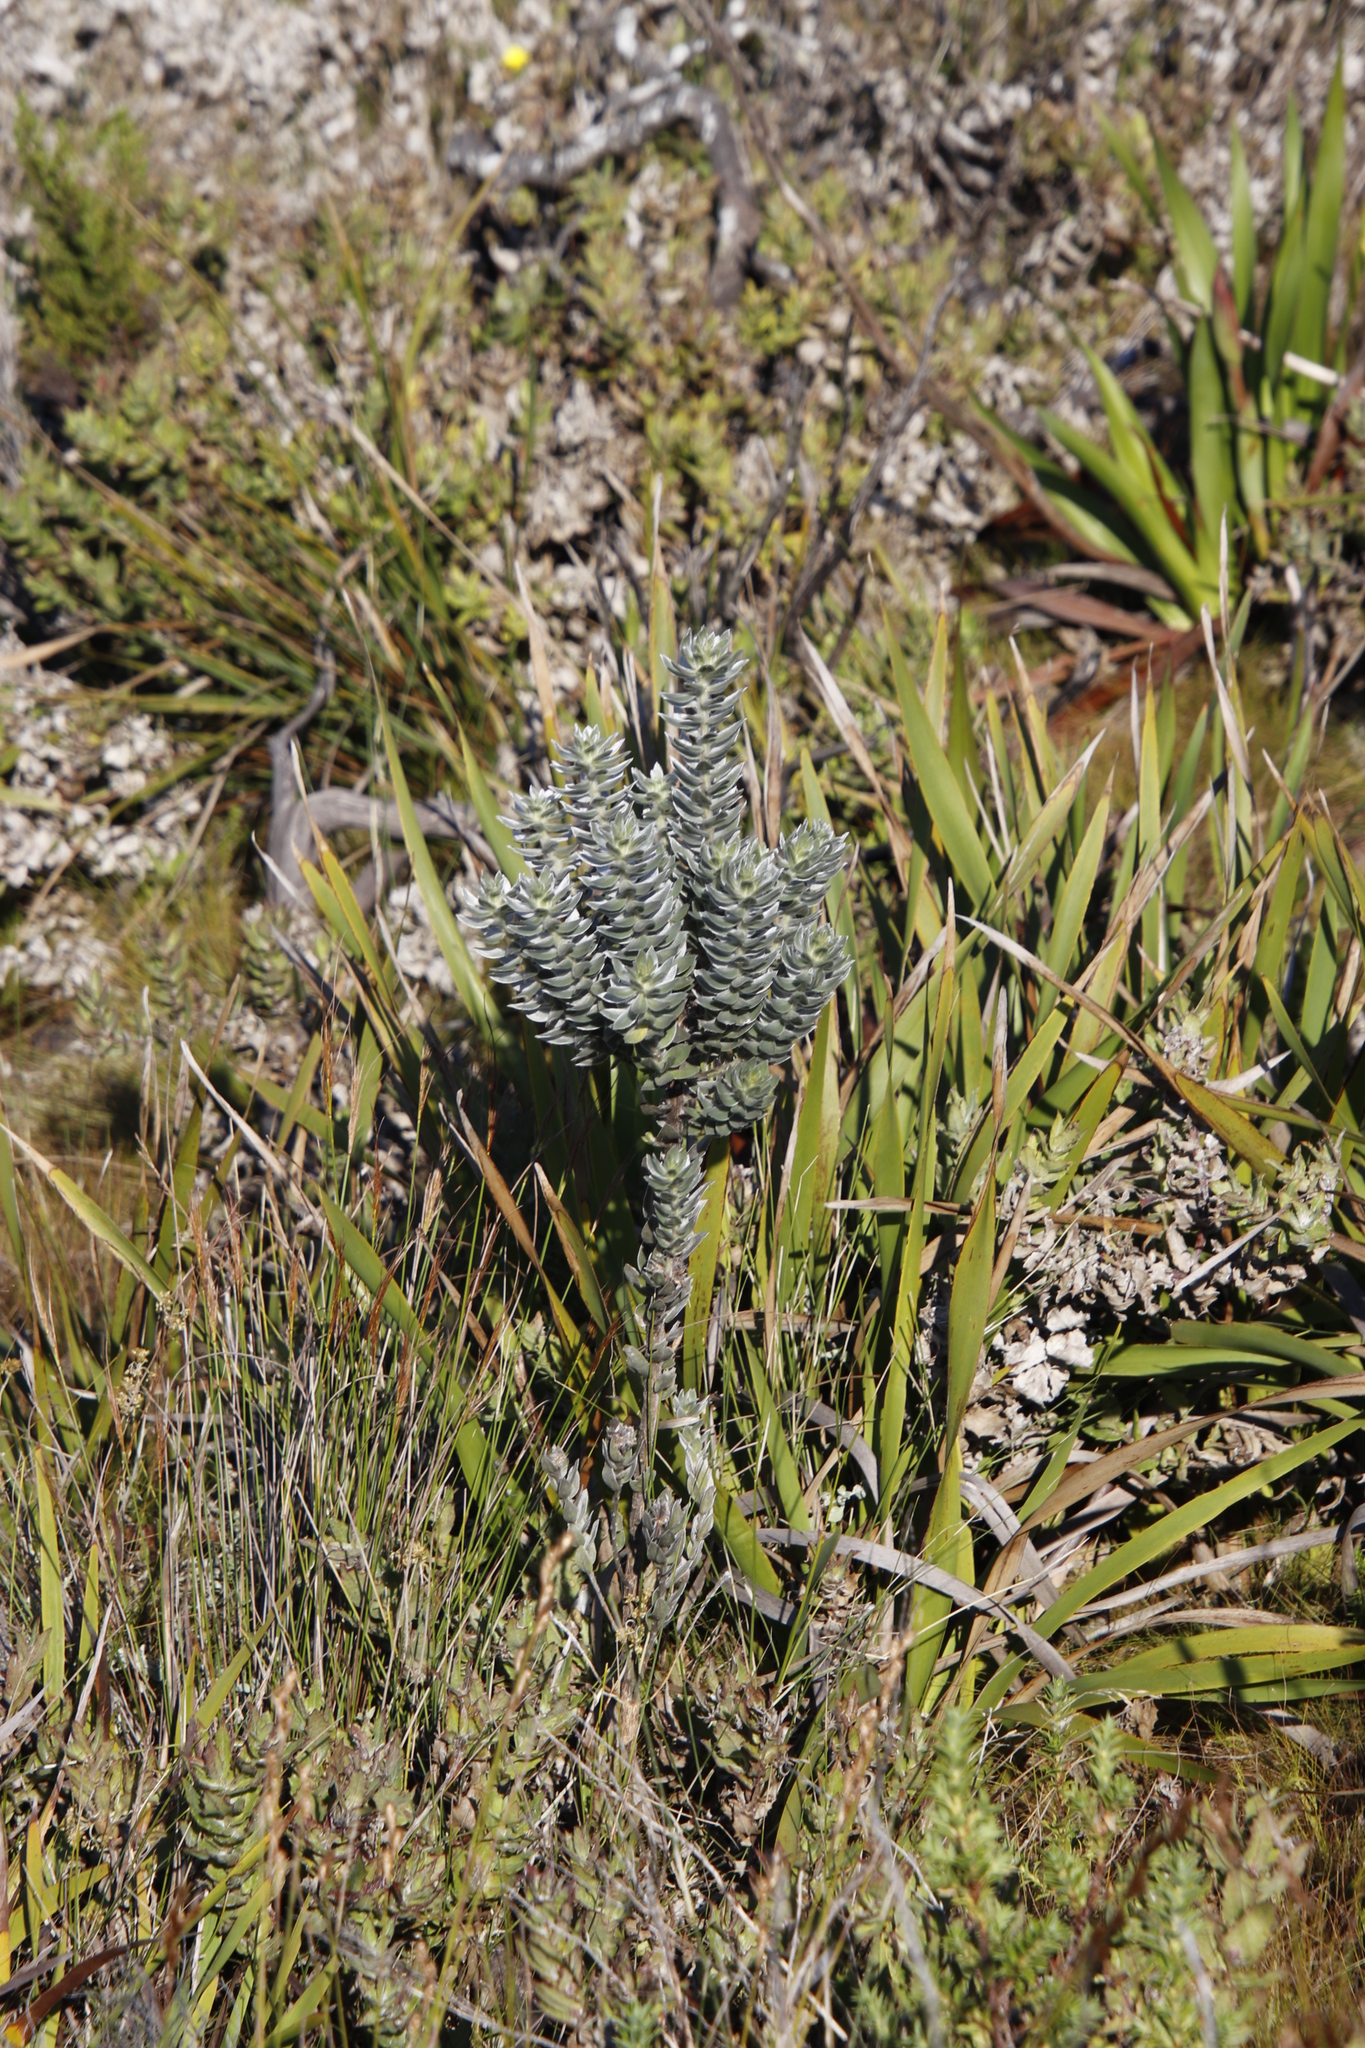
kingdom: Plantae
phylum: Tracheophyta
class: Magnoliopsida
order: Fabales
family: Fabaceae
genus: Xiphotheca
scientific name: Xiphotheca fruticosa
